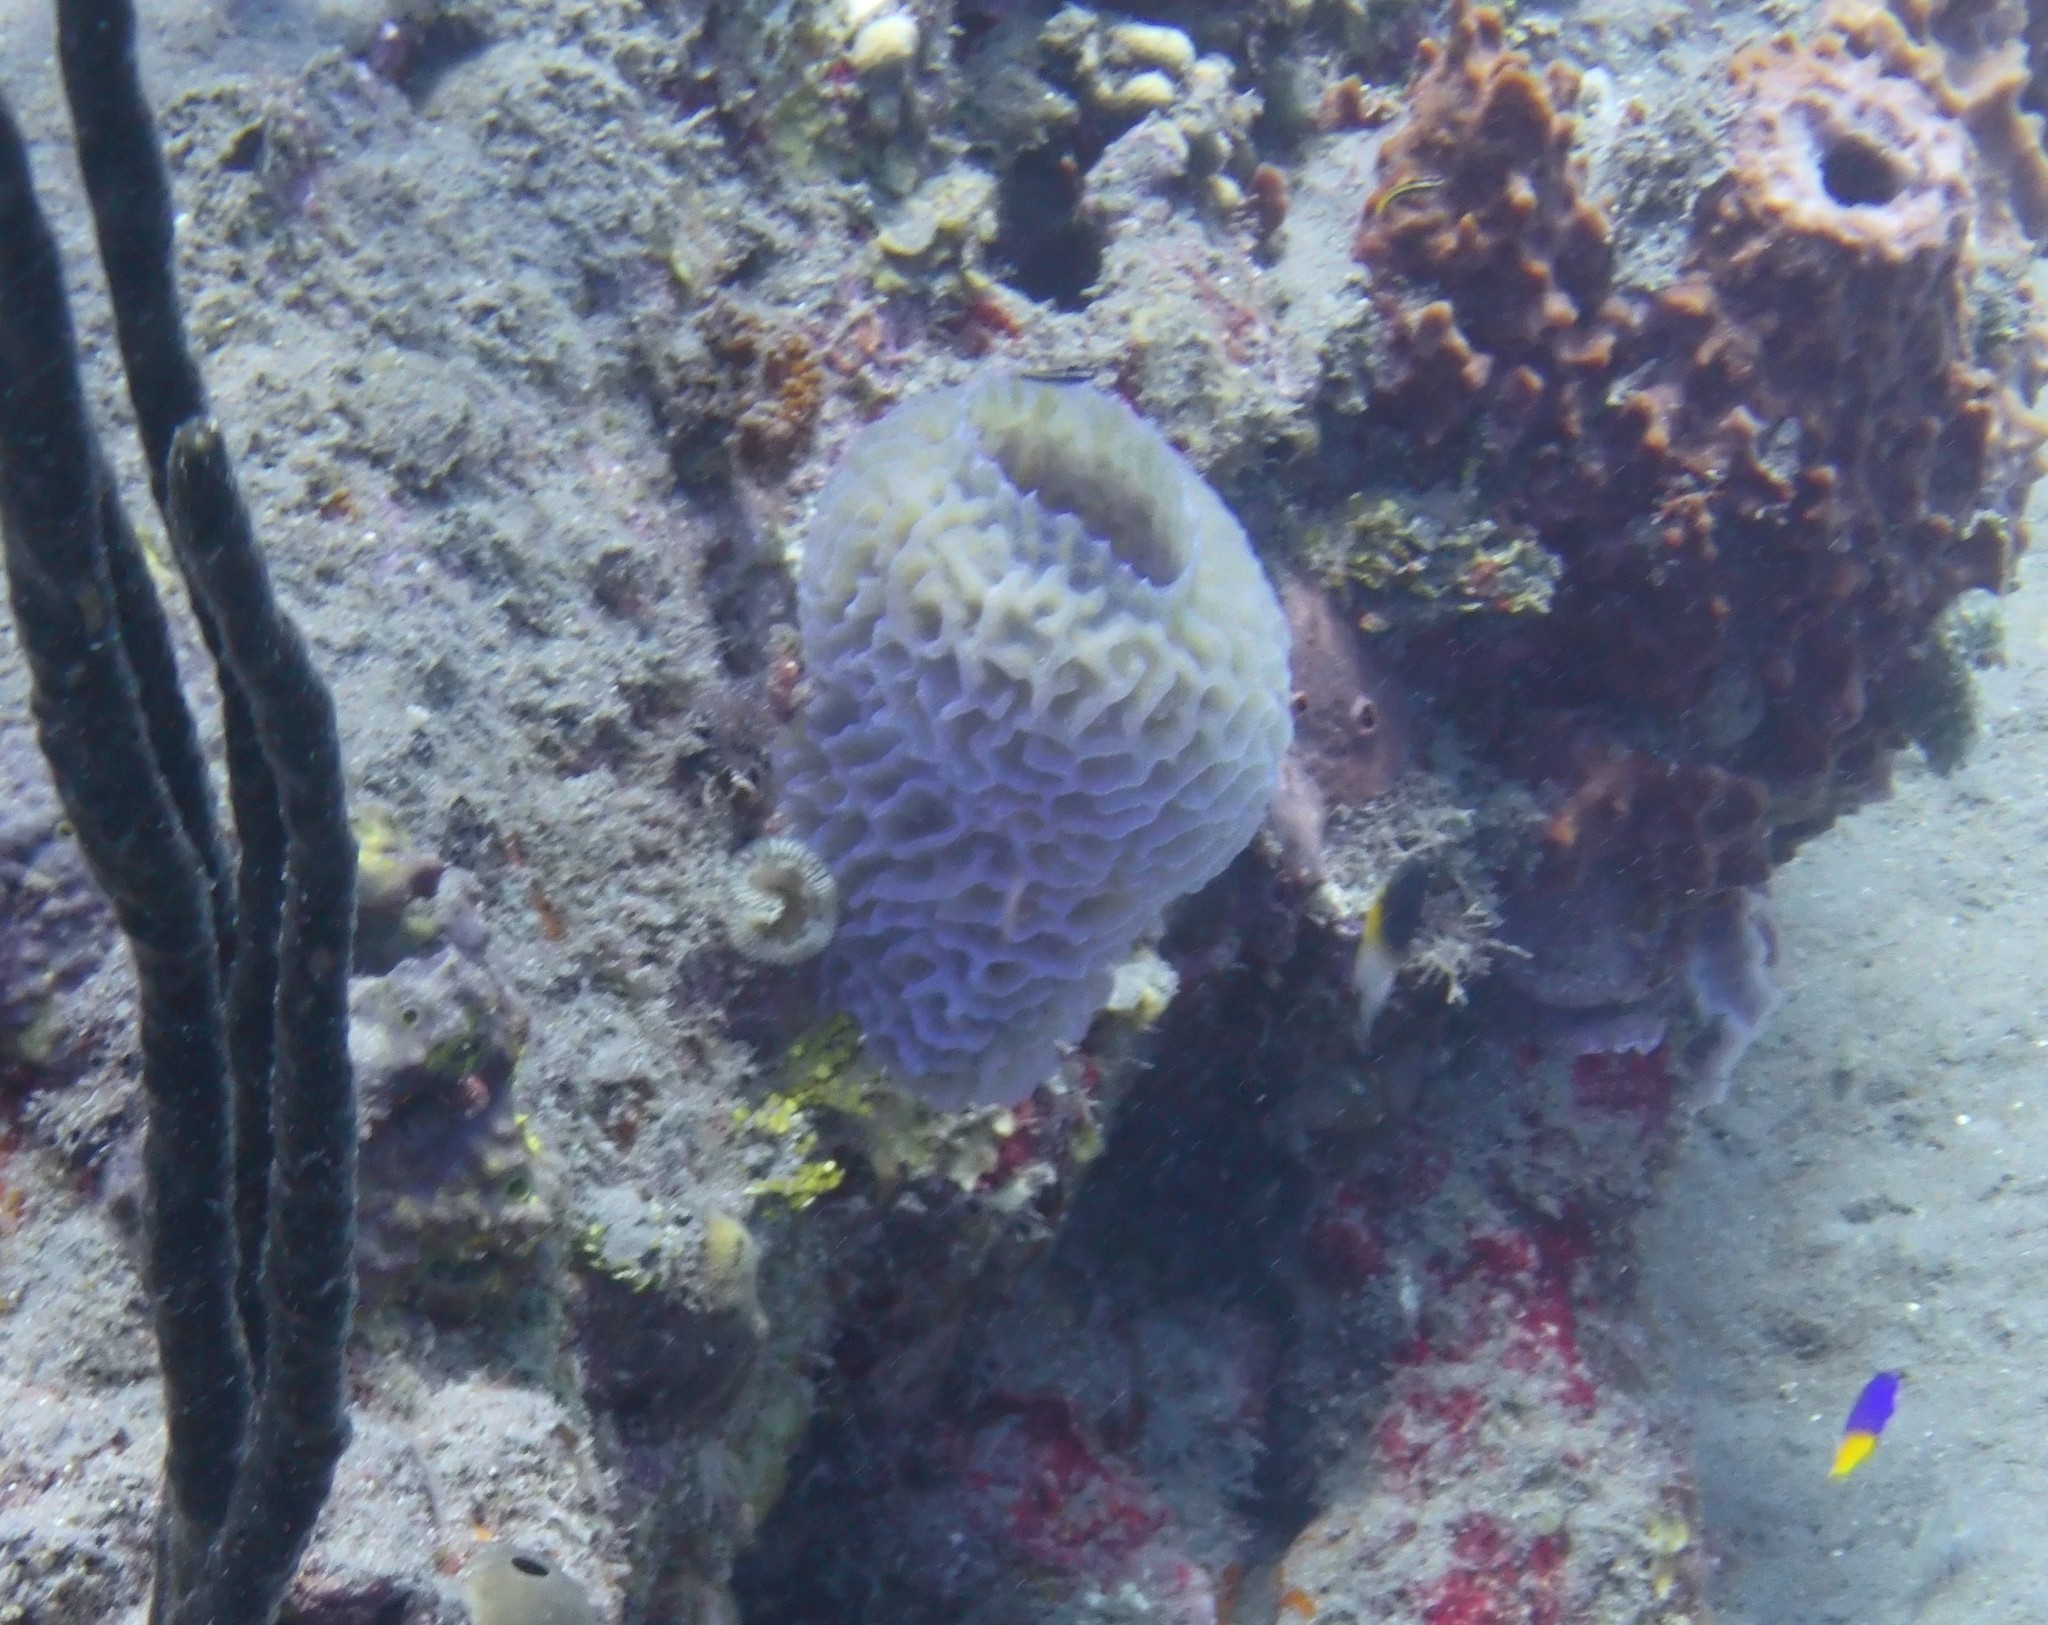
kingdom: Animalia
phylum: Porifera
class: Demospongiae
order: Haplosclerida
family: Callyspongiidae
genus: Callyspongia
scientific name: Callyspongia plicifera
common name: Azure vase sponge
